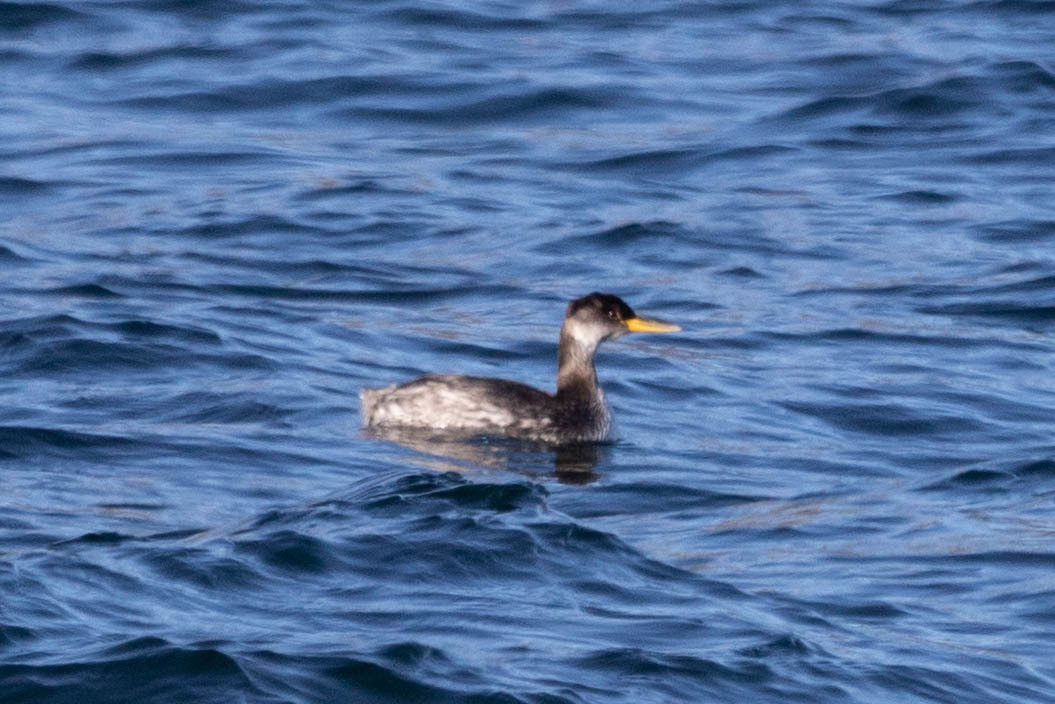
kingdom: Animalia
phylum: Chordata
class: Aves
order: Podicipediformes
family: Podicipedidae
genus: Podiceps
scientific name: Podiceps grisegena
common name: Red-necked grebe
